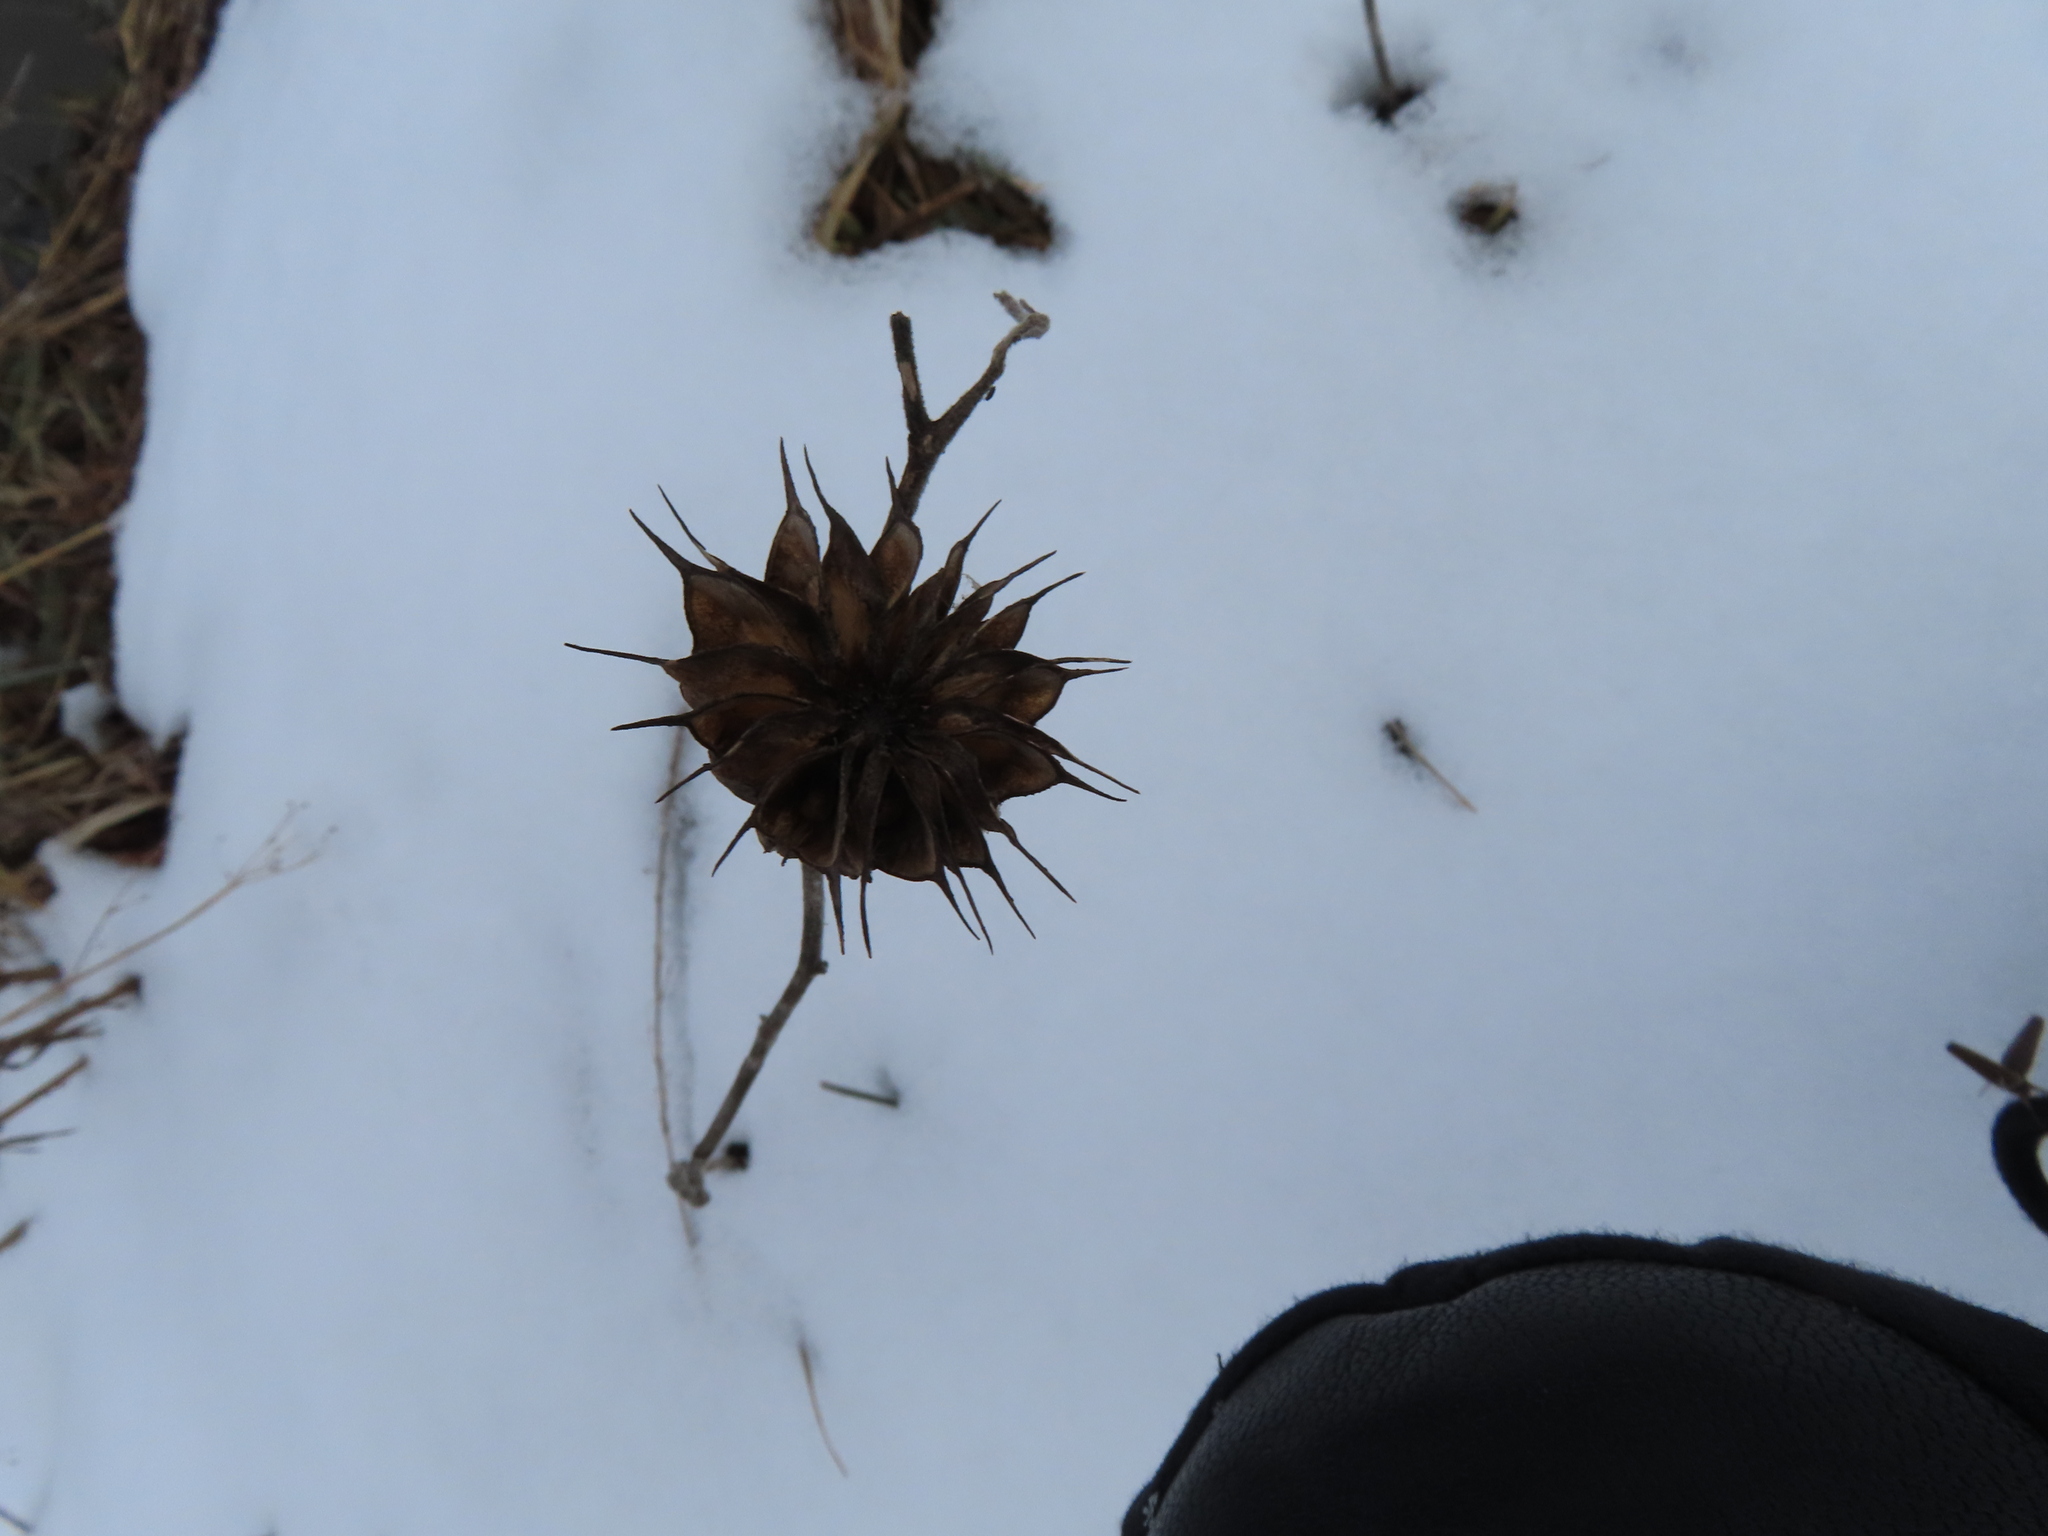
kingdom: Plantae
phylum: Tracheophyta
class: Magnoliopsida
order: Malvales
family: Malvaceae
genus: Abutilon
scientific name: Abutilon theophrasti
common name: Velvetleaf
